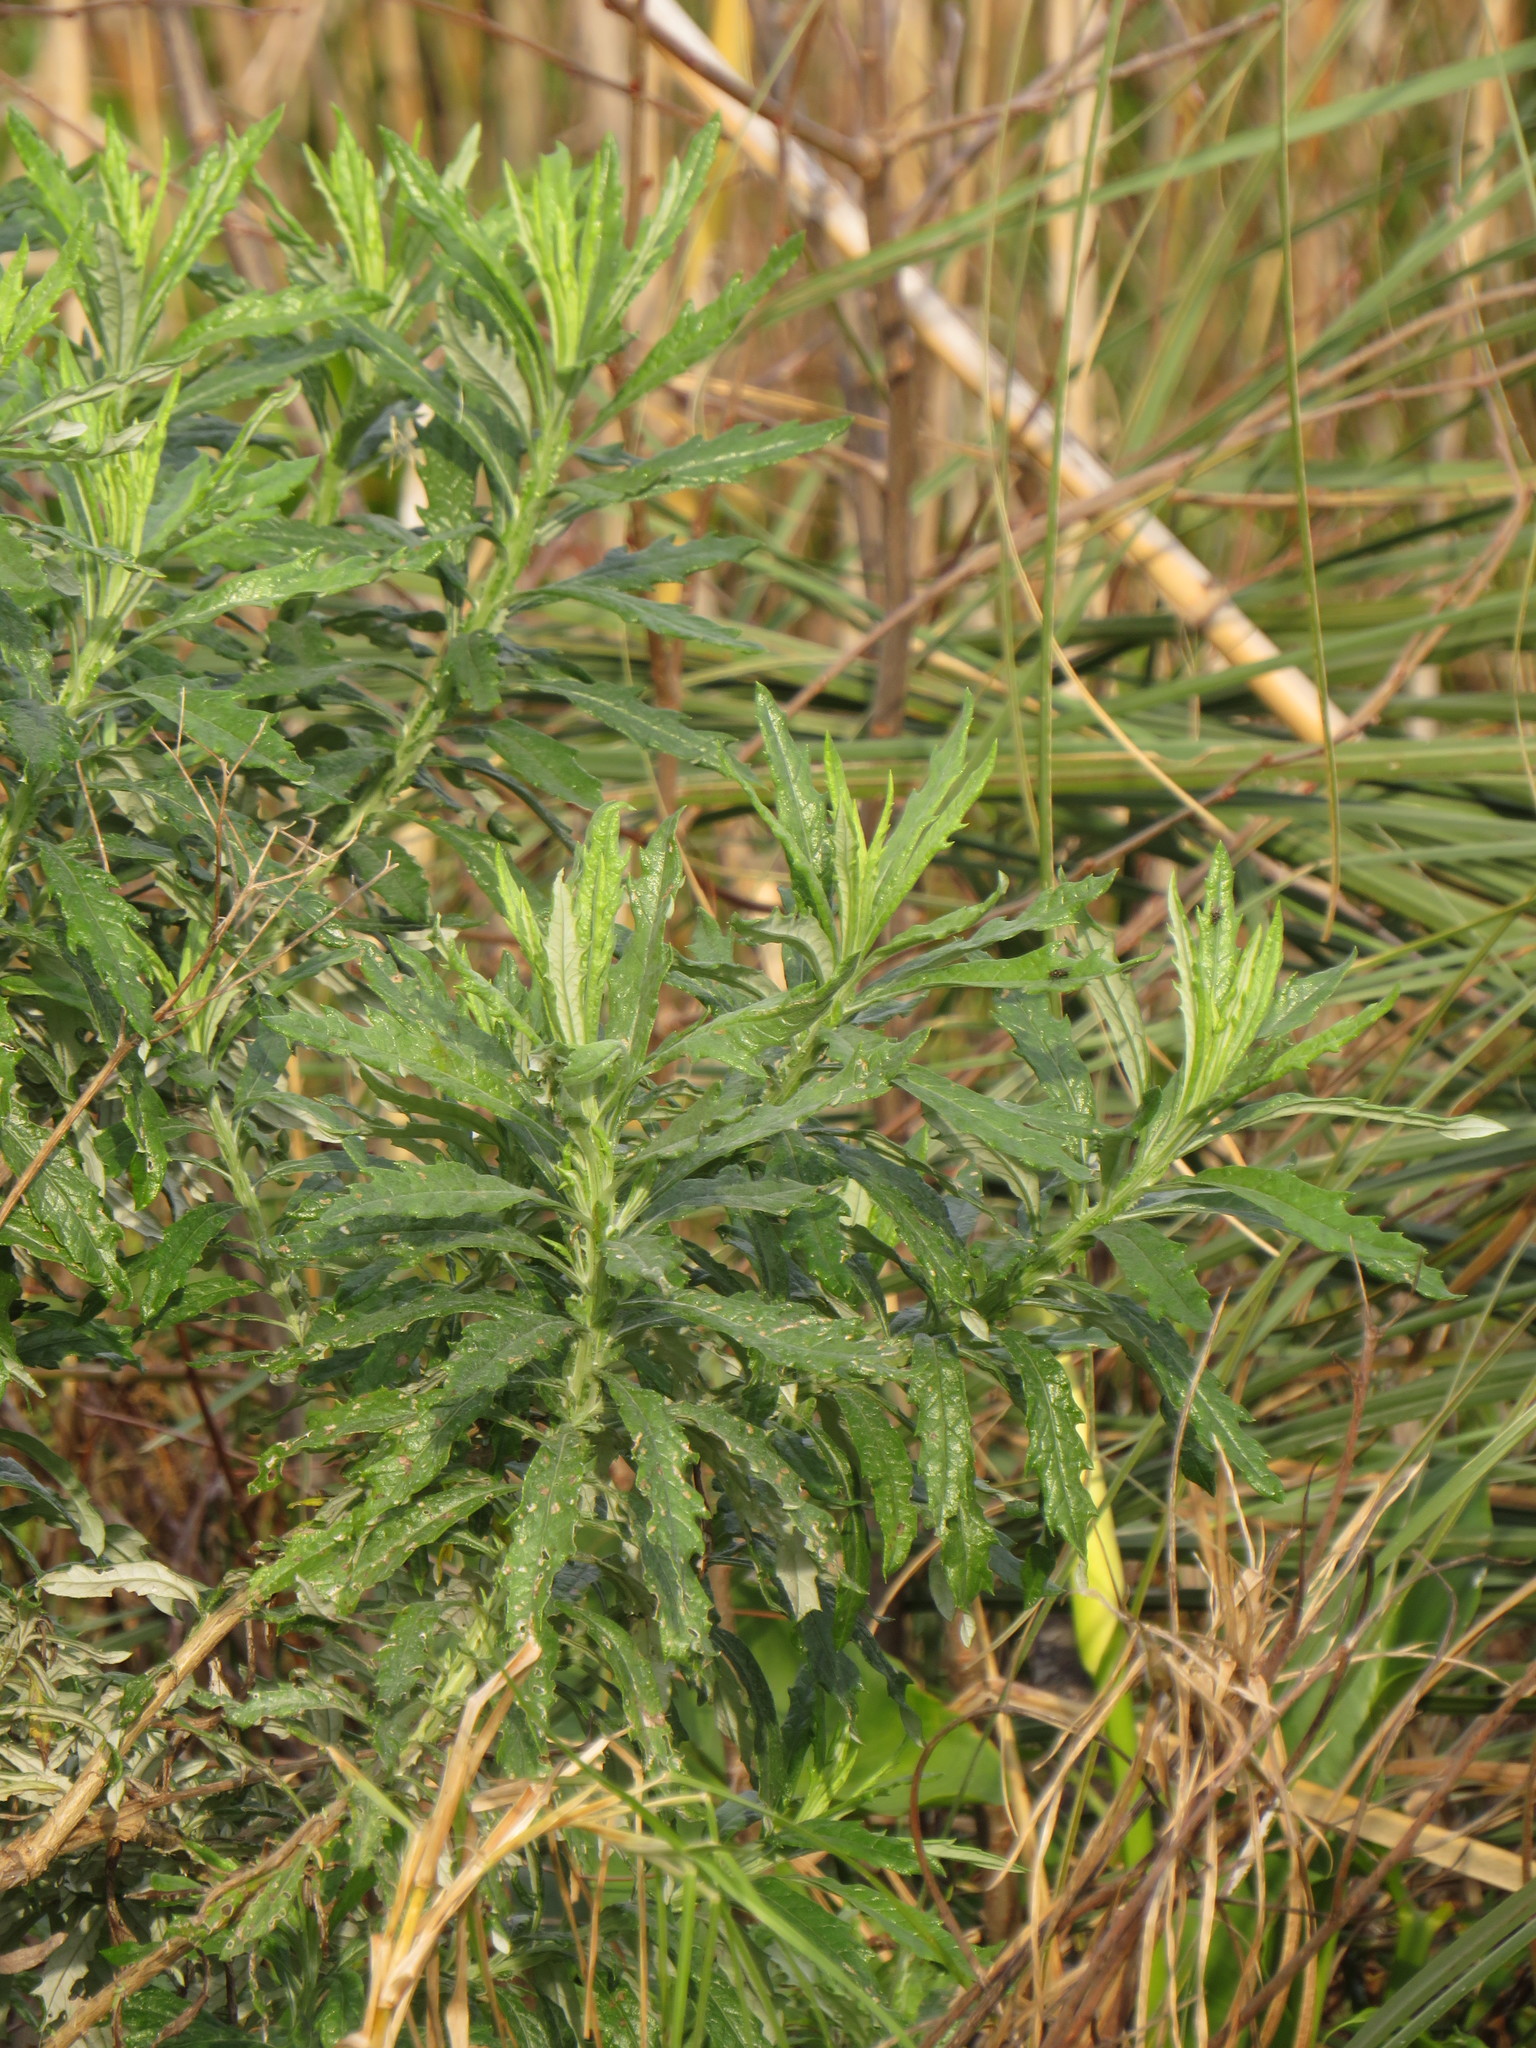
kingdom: Plantae
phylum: Tracheophyta
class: Magnoliopsida
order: Asterales
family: Asteraceae
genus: Senecio
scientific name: Senecio pterophorus
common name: Shoddy ragwort
